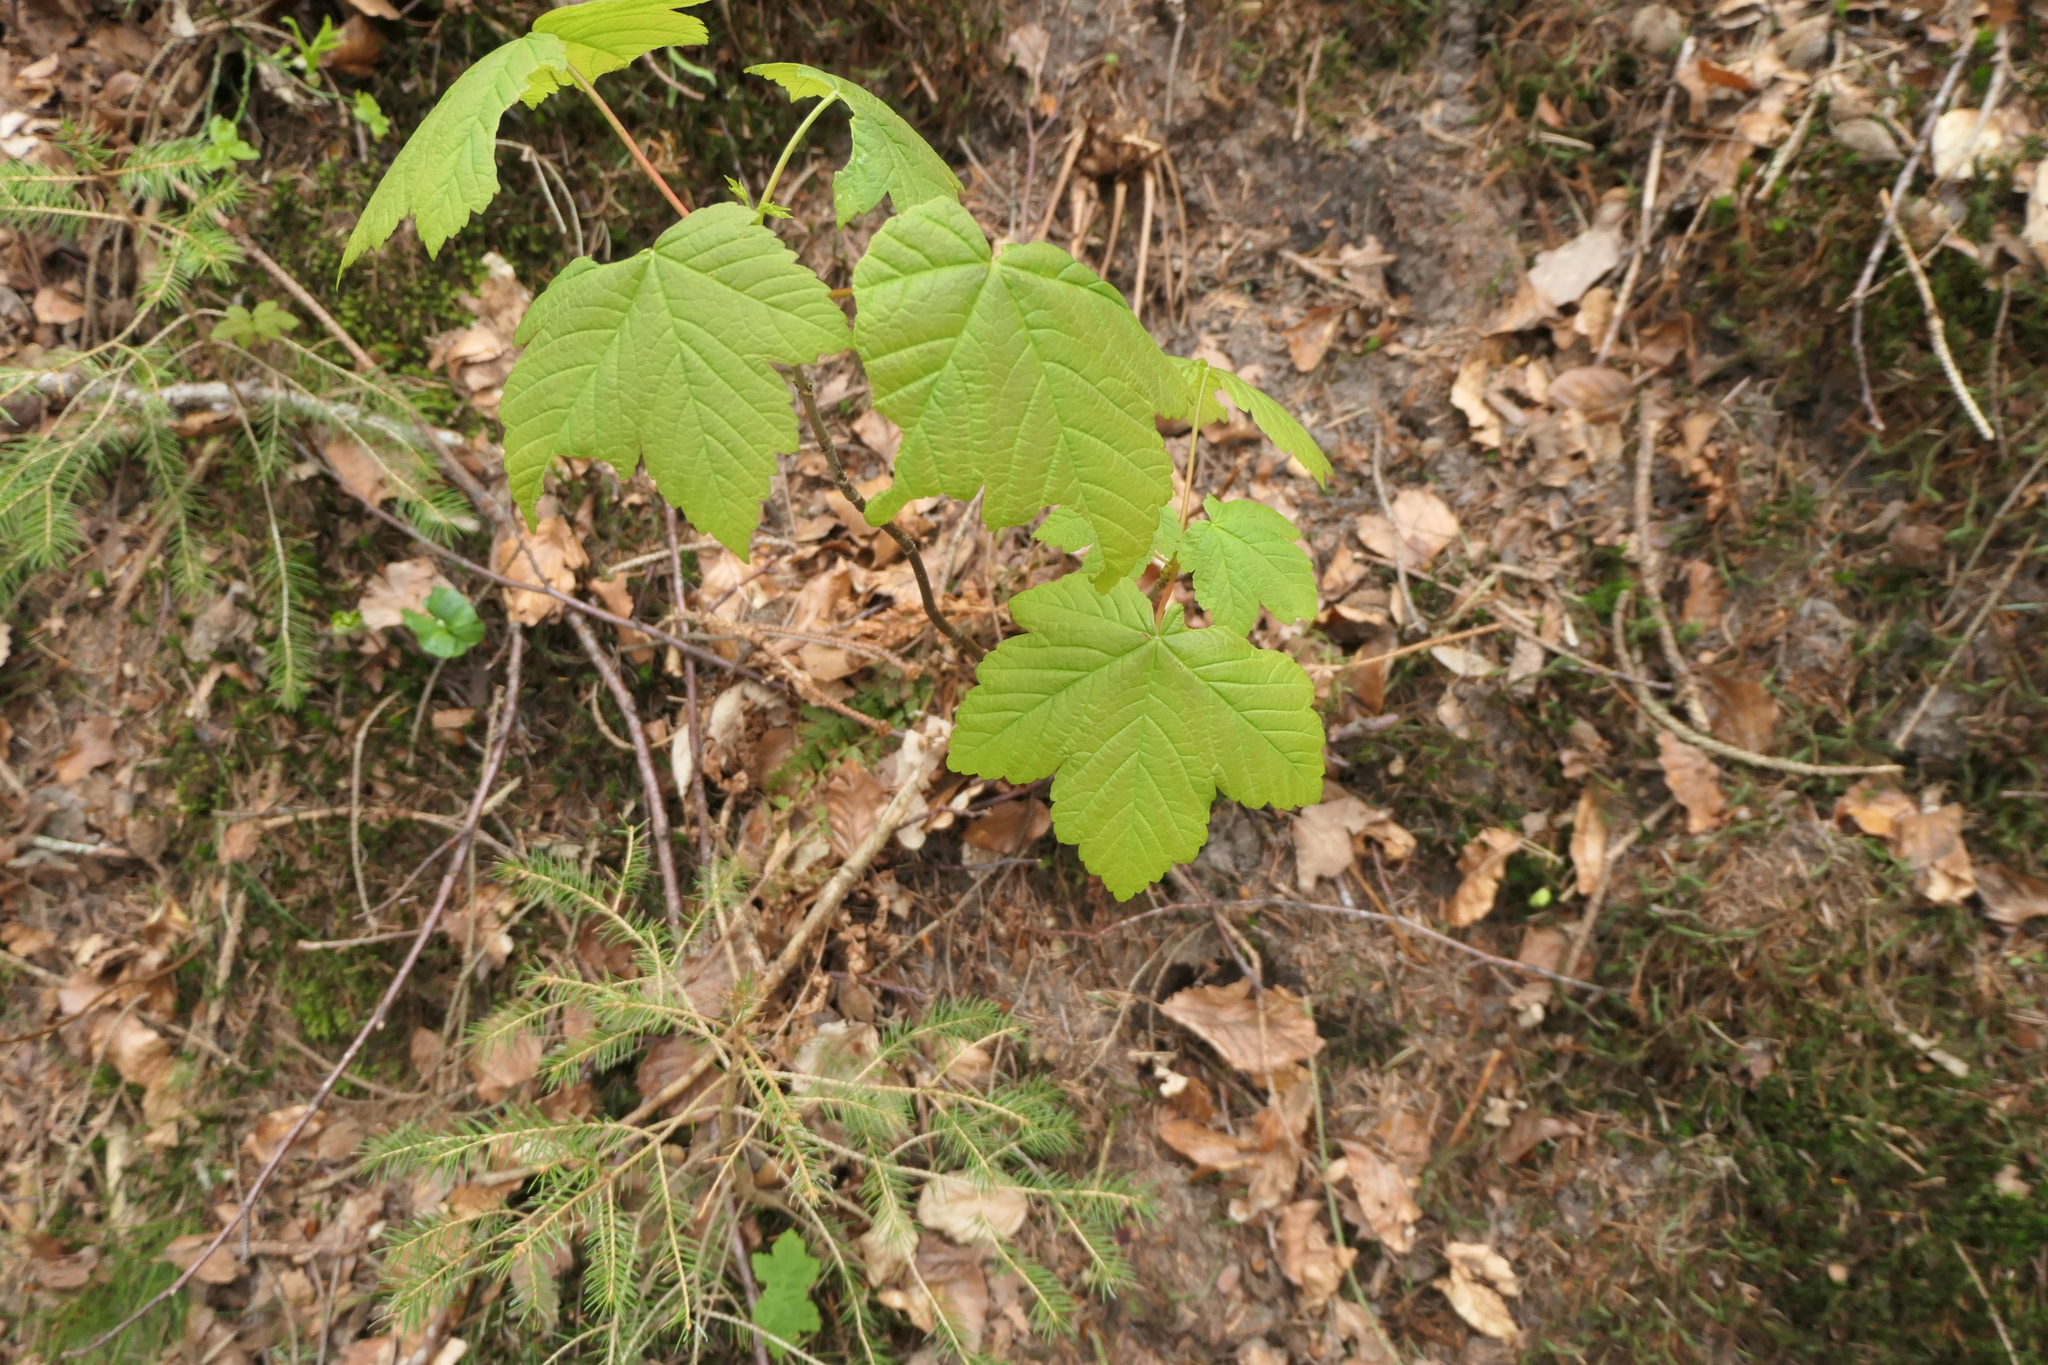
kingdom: Plantae
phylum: Tracheophyta
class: Magnoliopsida
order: Sapindales
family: Sapindaceae
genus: Acer
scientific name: Acer pseudoplatanus
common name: Sycamore
